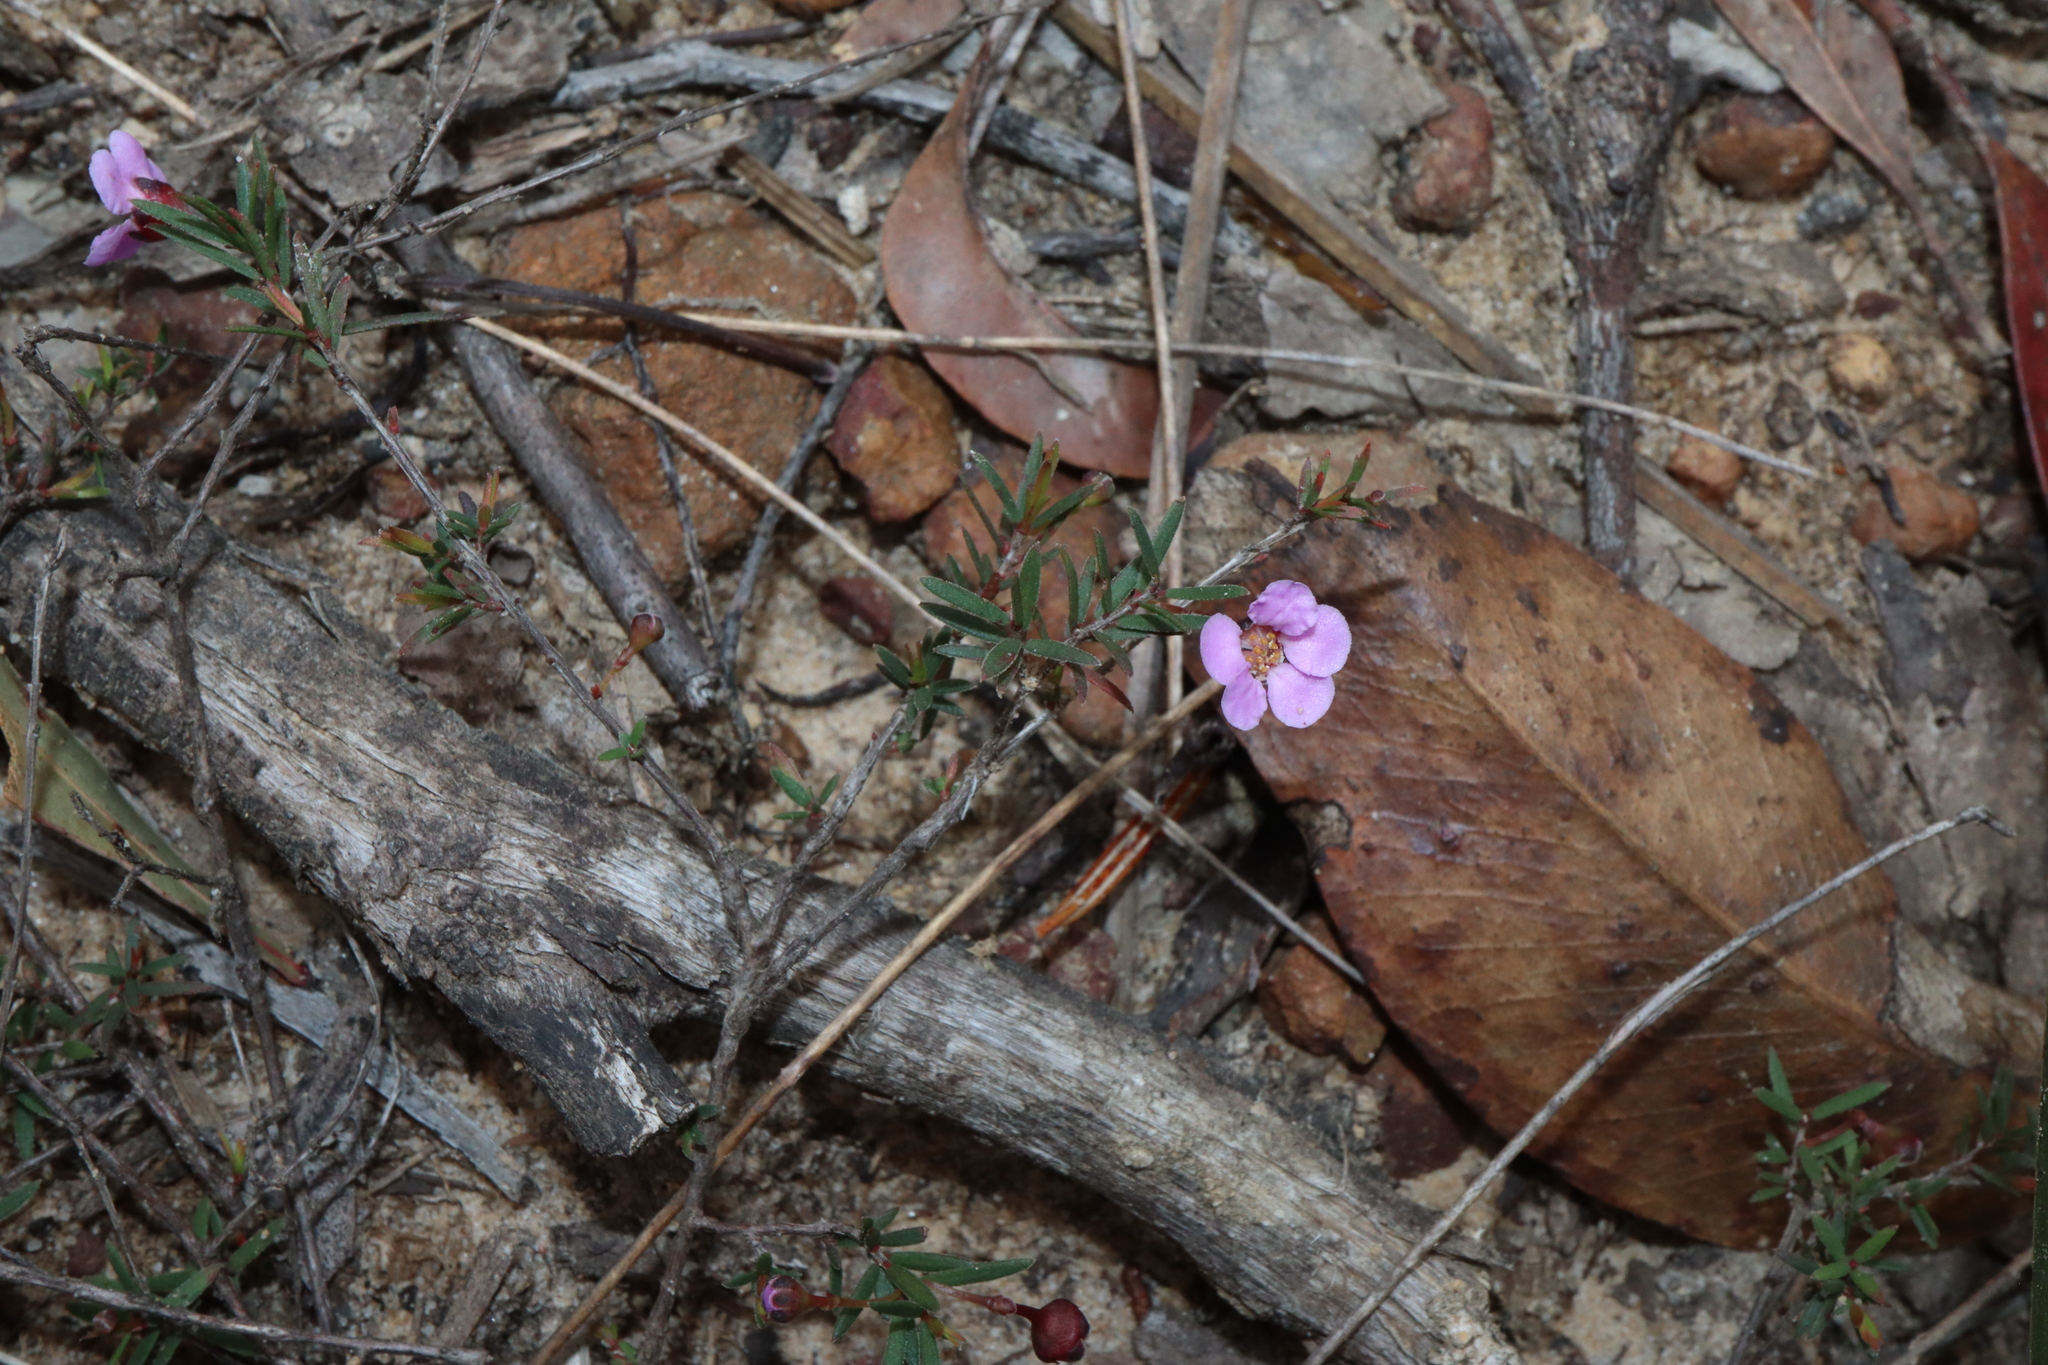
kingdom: Plantae
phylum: Tracheophyta
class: Magnoliopsida
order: Myrtales
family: Myrtaceae
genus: Euryomyrtus
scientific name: Euryomyrtus ramosissima
